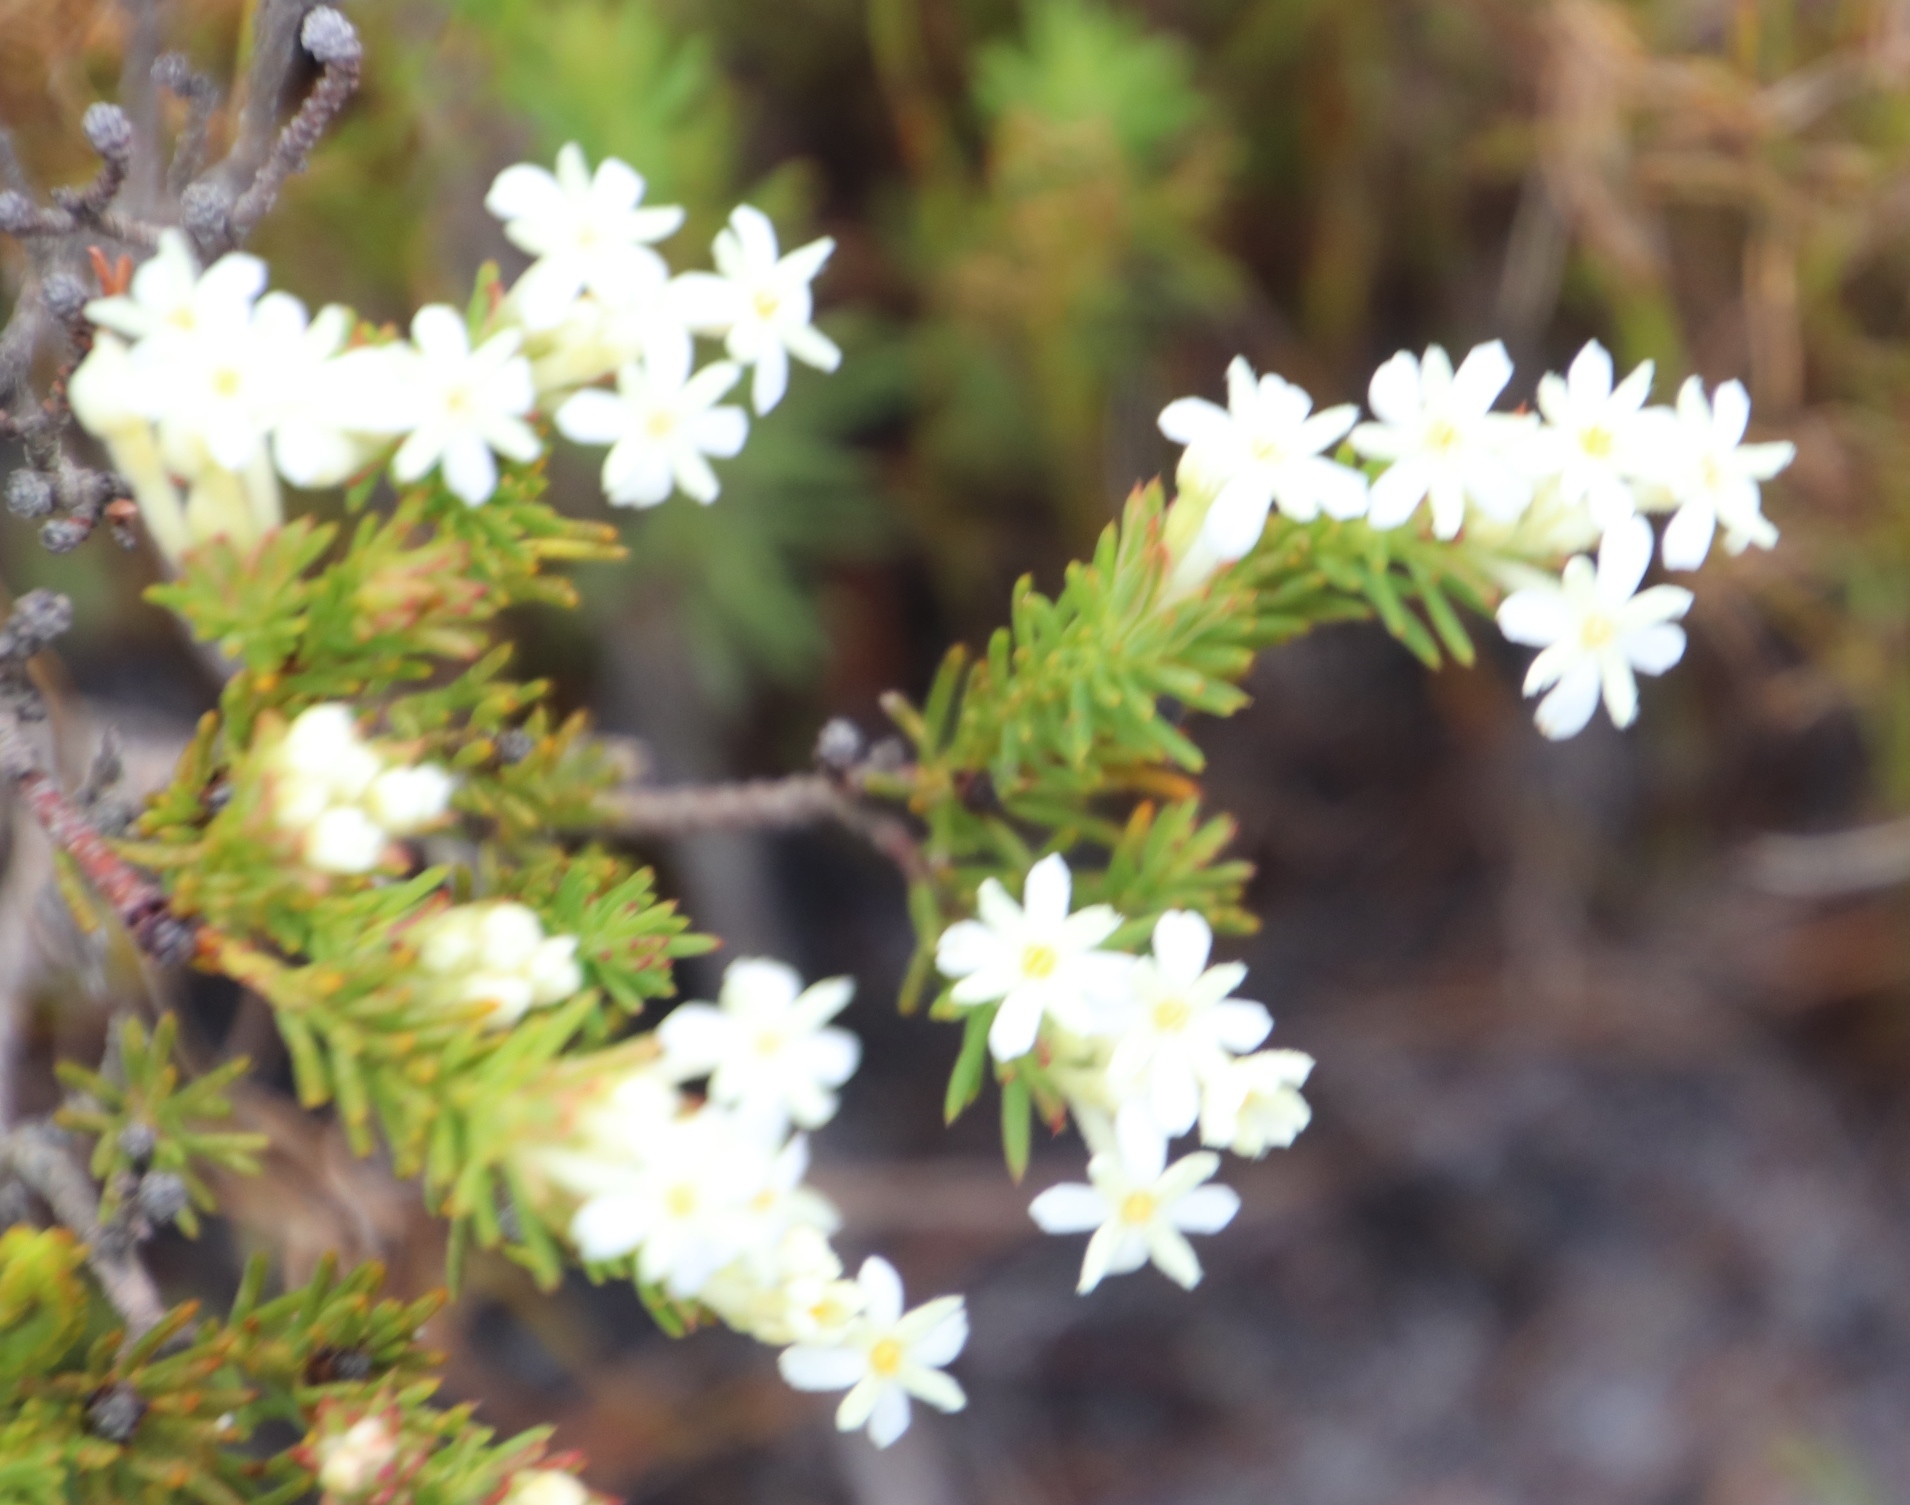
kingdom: Plantae
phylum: Tracheophyta
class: Magnoliopsida
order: Malvales
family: Thymelaeaceae
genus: Gnidia
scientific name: Gnidia pinifolia
